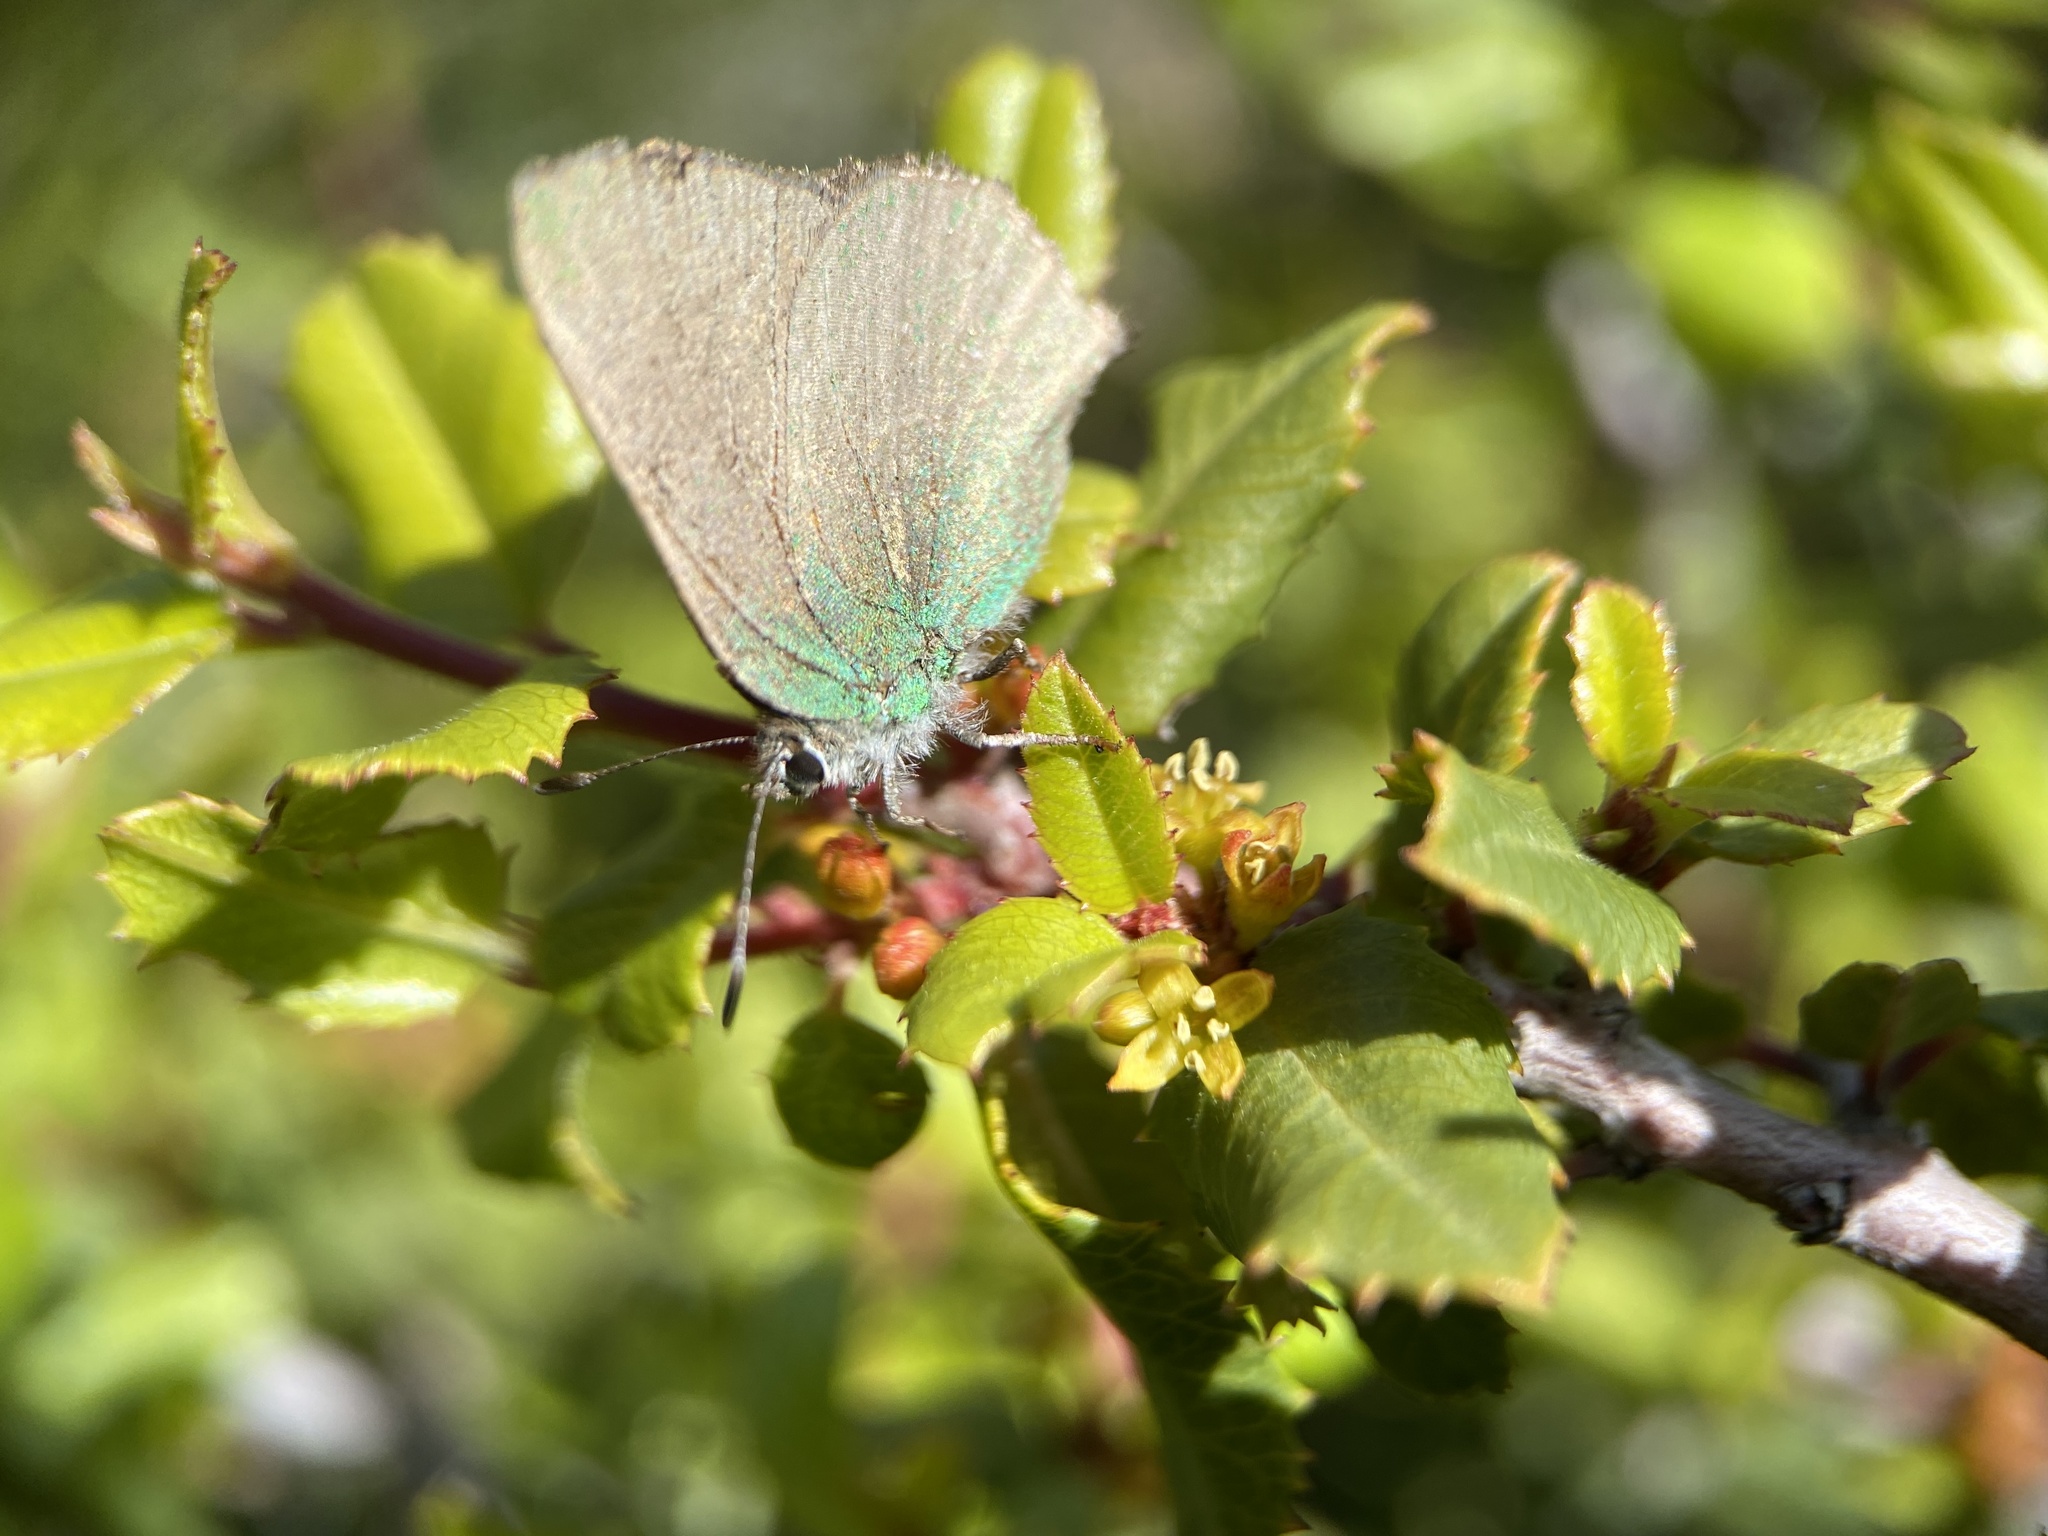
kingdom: Animalia
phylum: Arthropoda
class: Insecta
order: Lepidoptera
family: Lycaenidae
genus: Callophrys
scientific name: Callophrys dumetorum
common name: Bramble hairstreak
